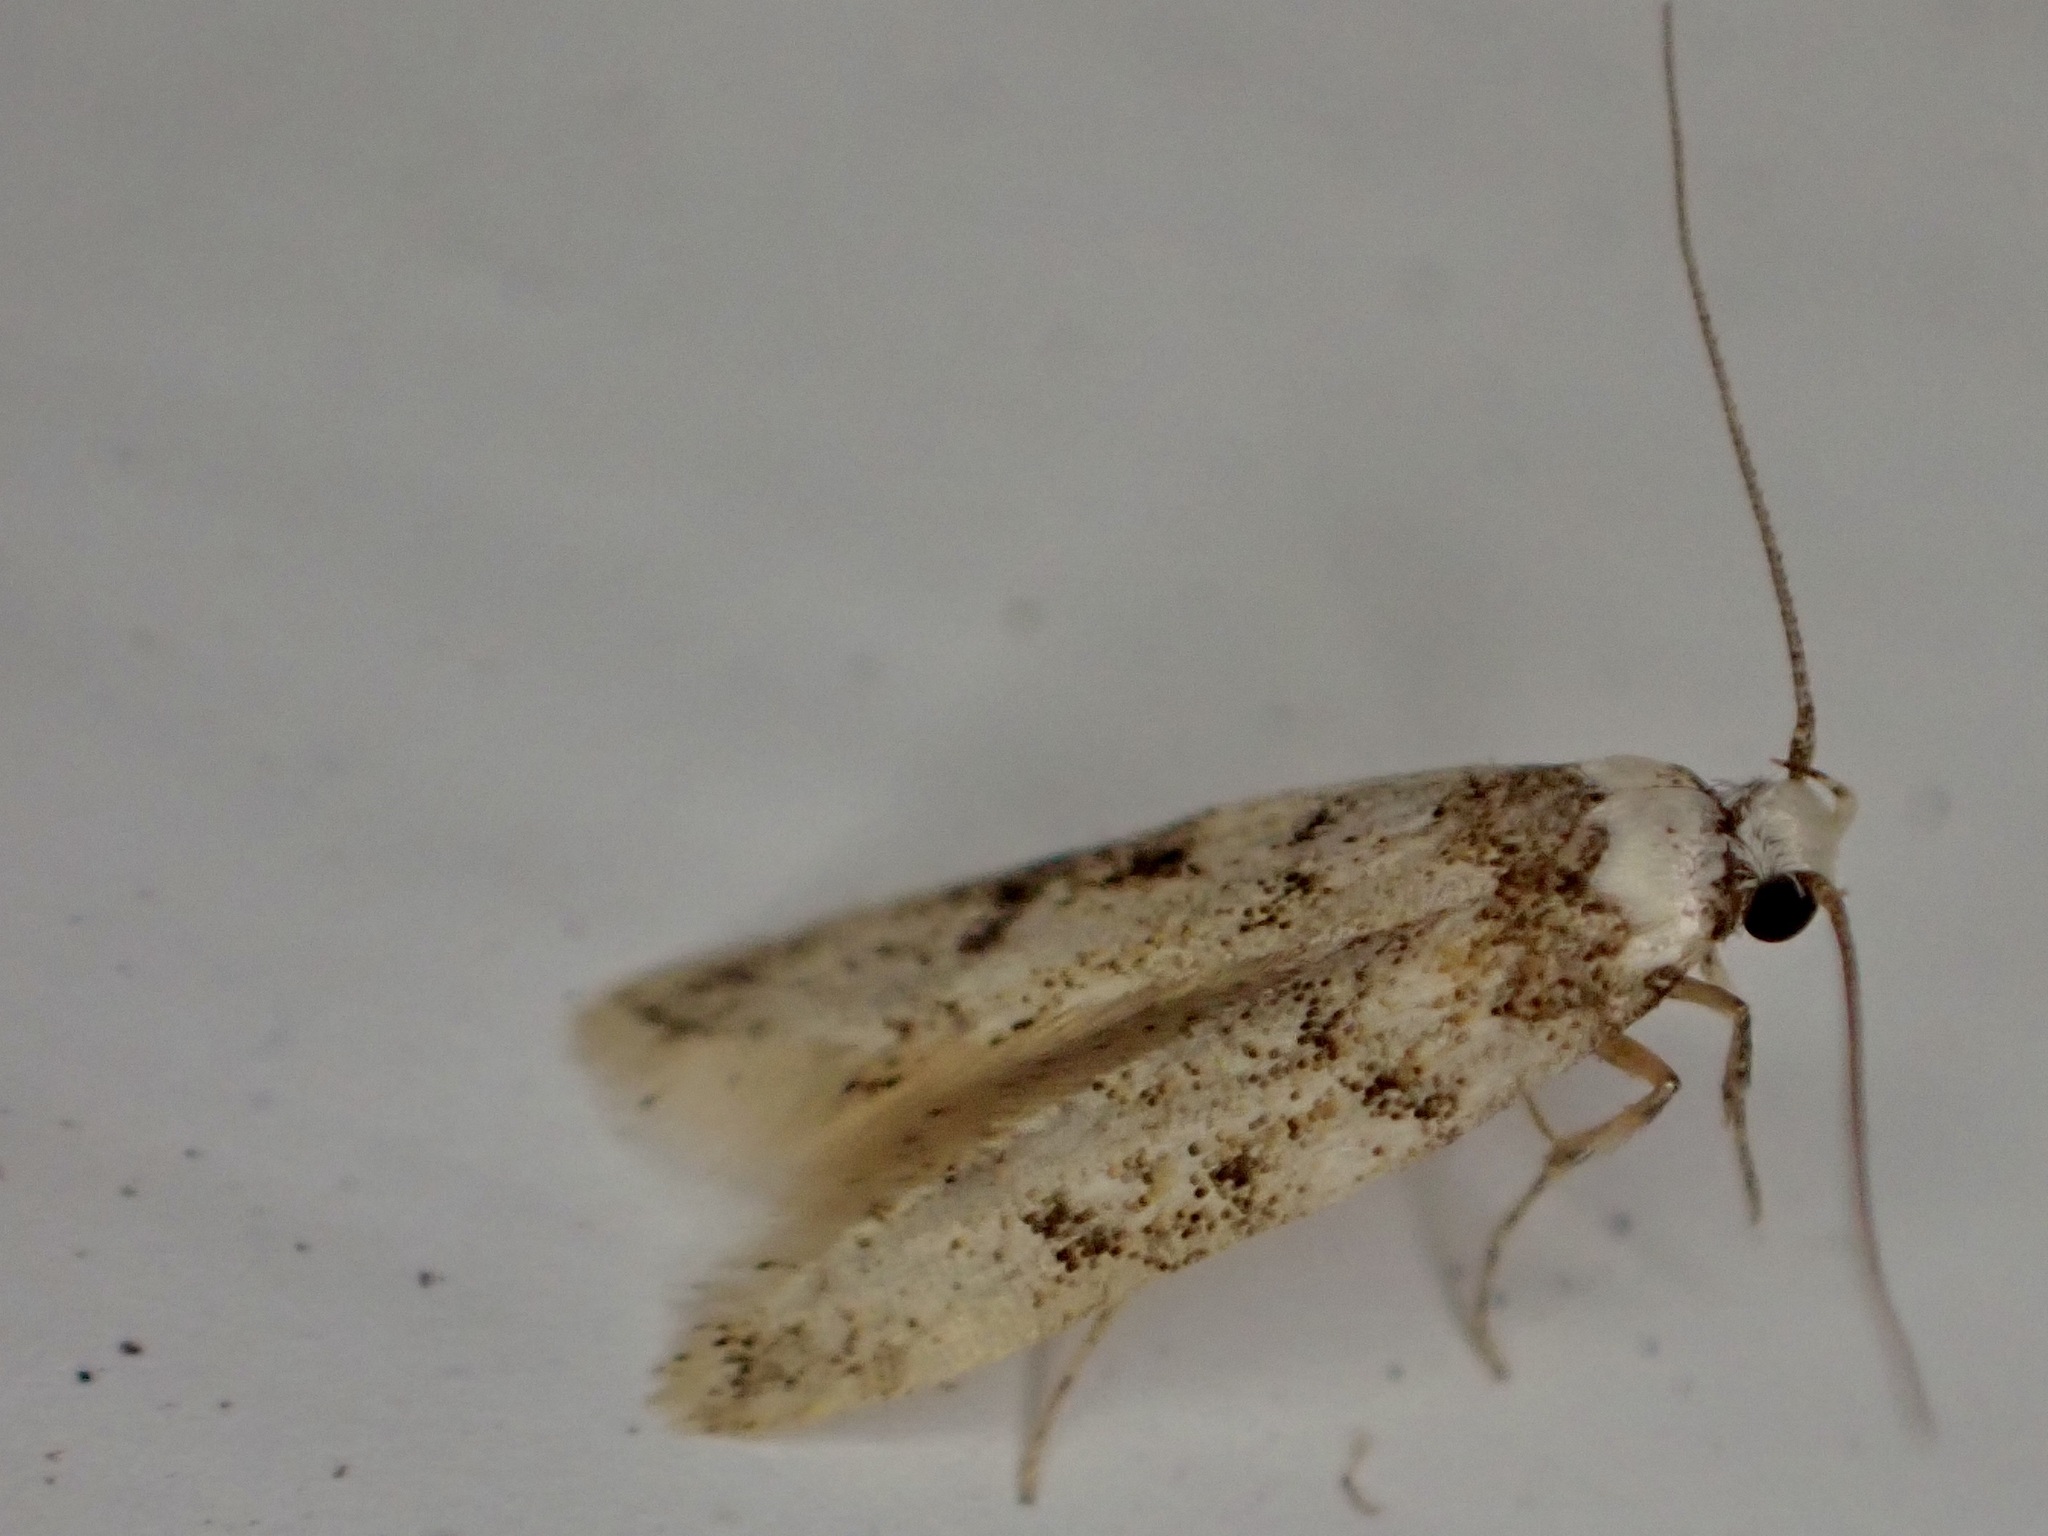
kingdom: Animalia
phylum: Arthropoda
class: Insecta
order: Lepidoptera
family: Oecophoridae
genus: Endrosis
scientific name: Endrosis sarcitrella
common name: White-shouldered house moth
